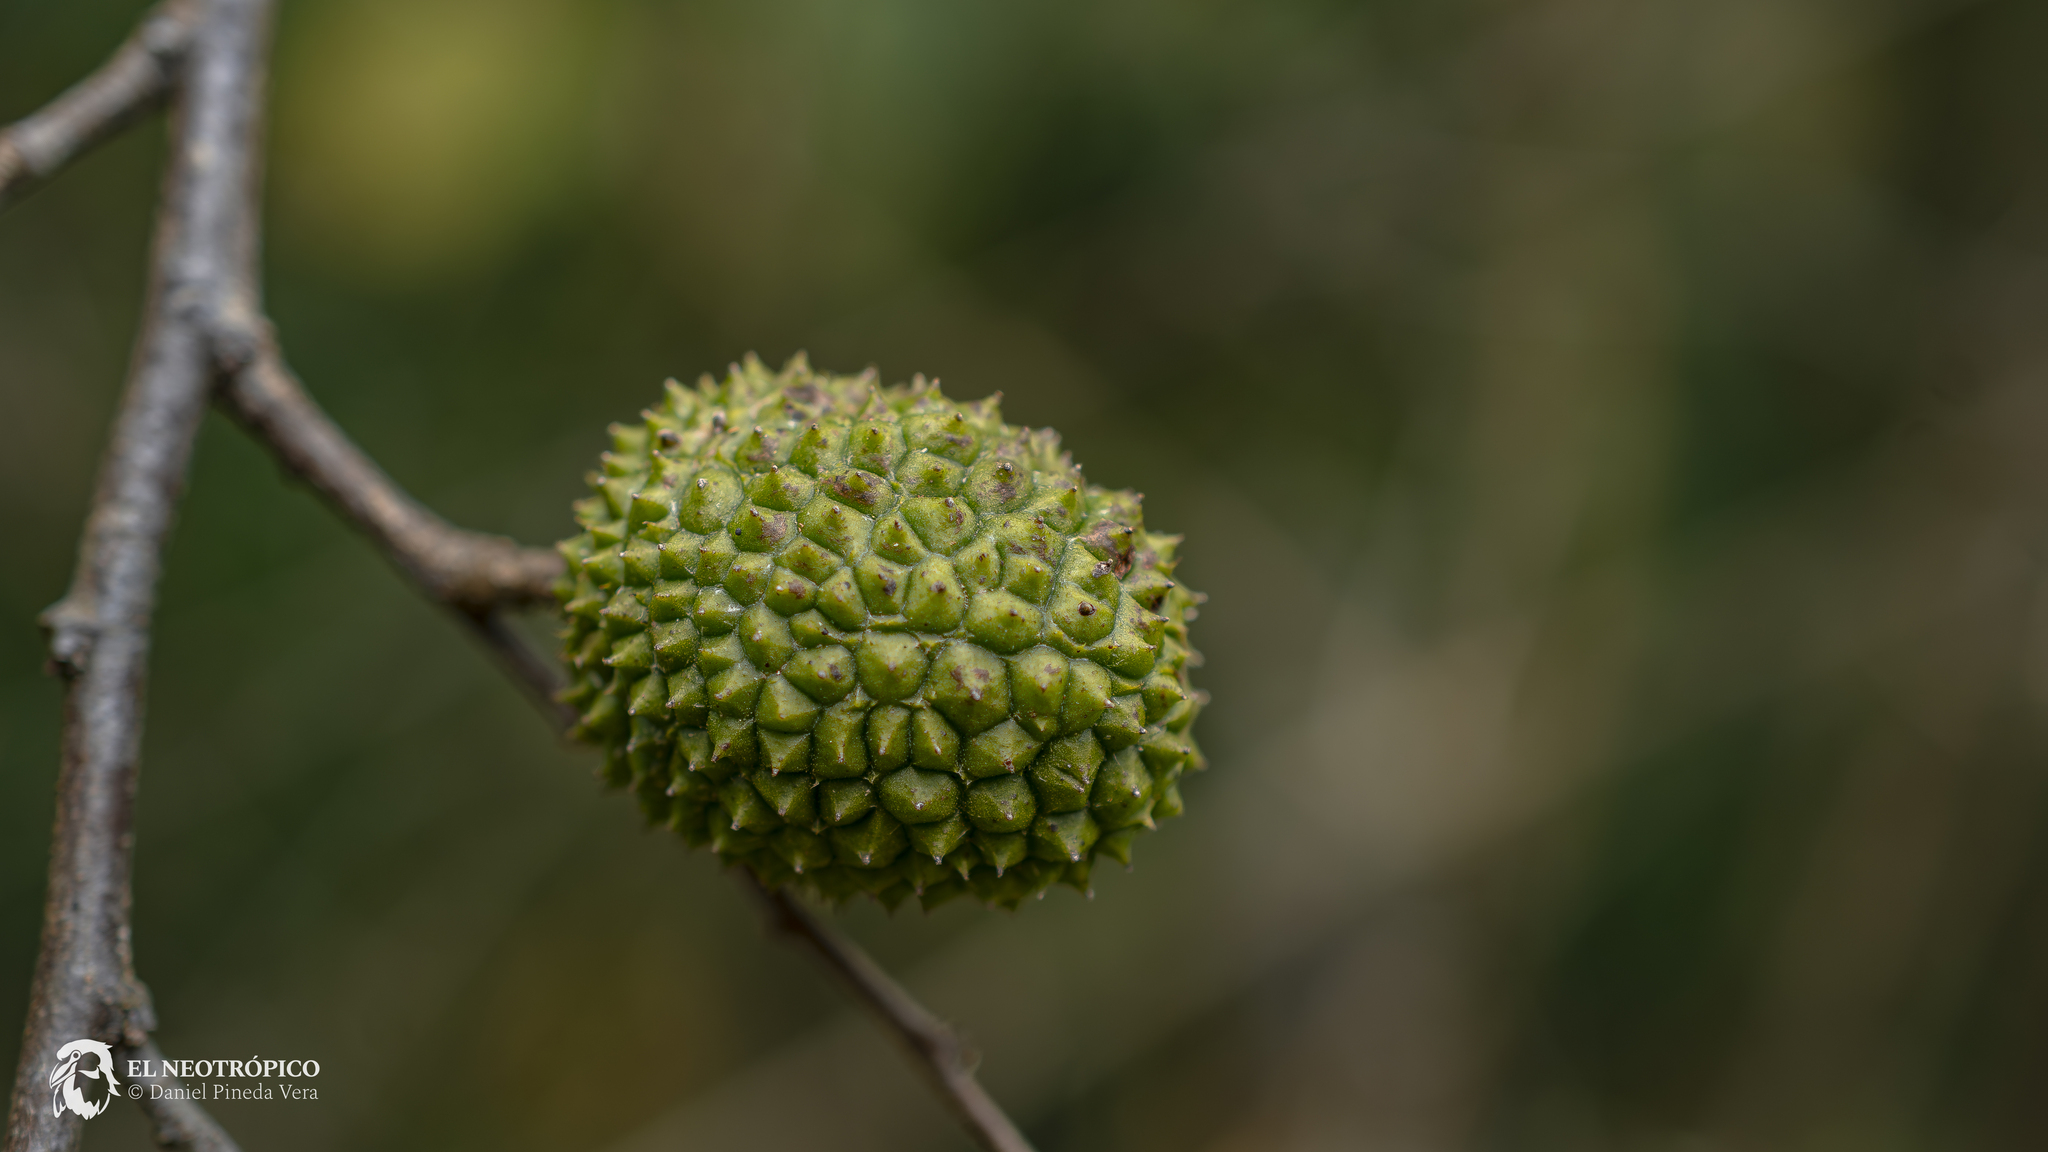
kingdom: Plantae
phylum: Tracheophyta
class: Magnoliopsida
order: Malvales
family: Malvaceae
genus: Guazuma
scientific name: Guazuma ulmifolia
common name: Bastard-cedar
